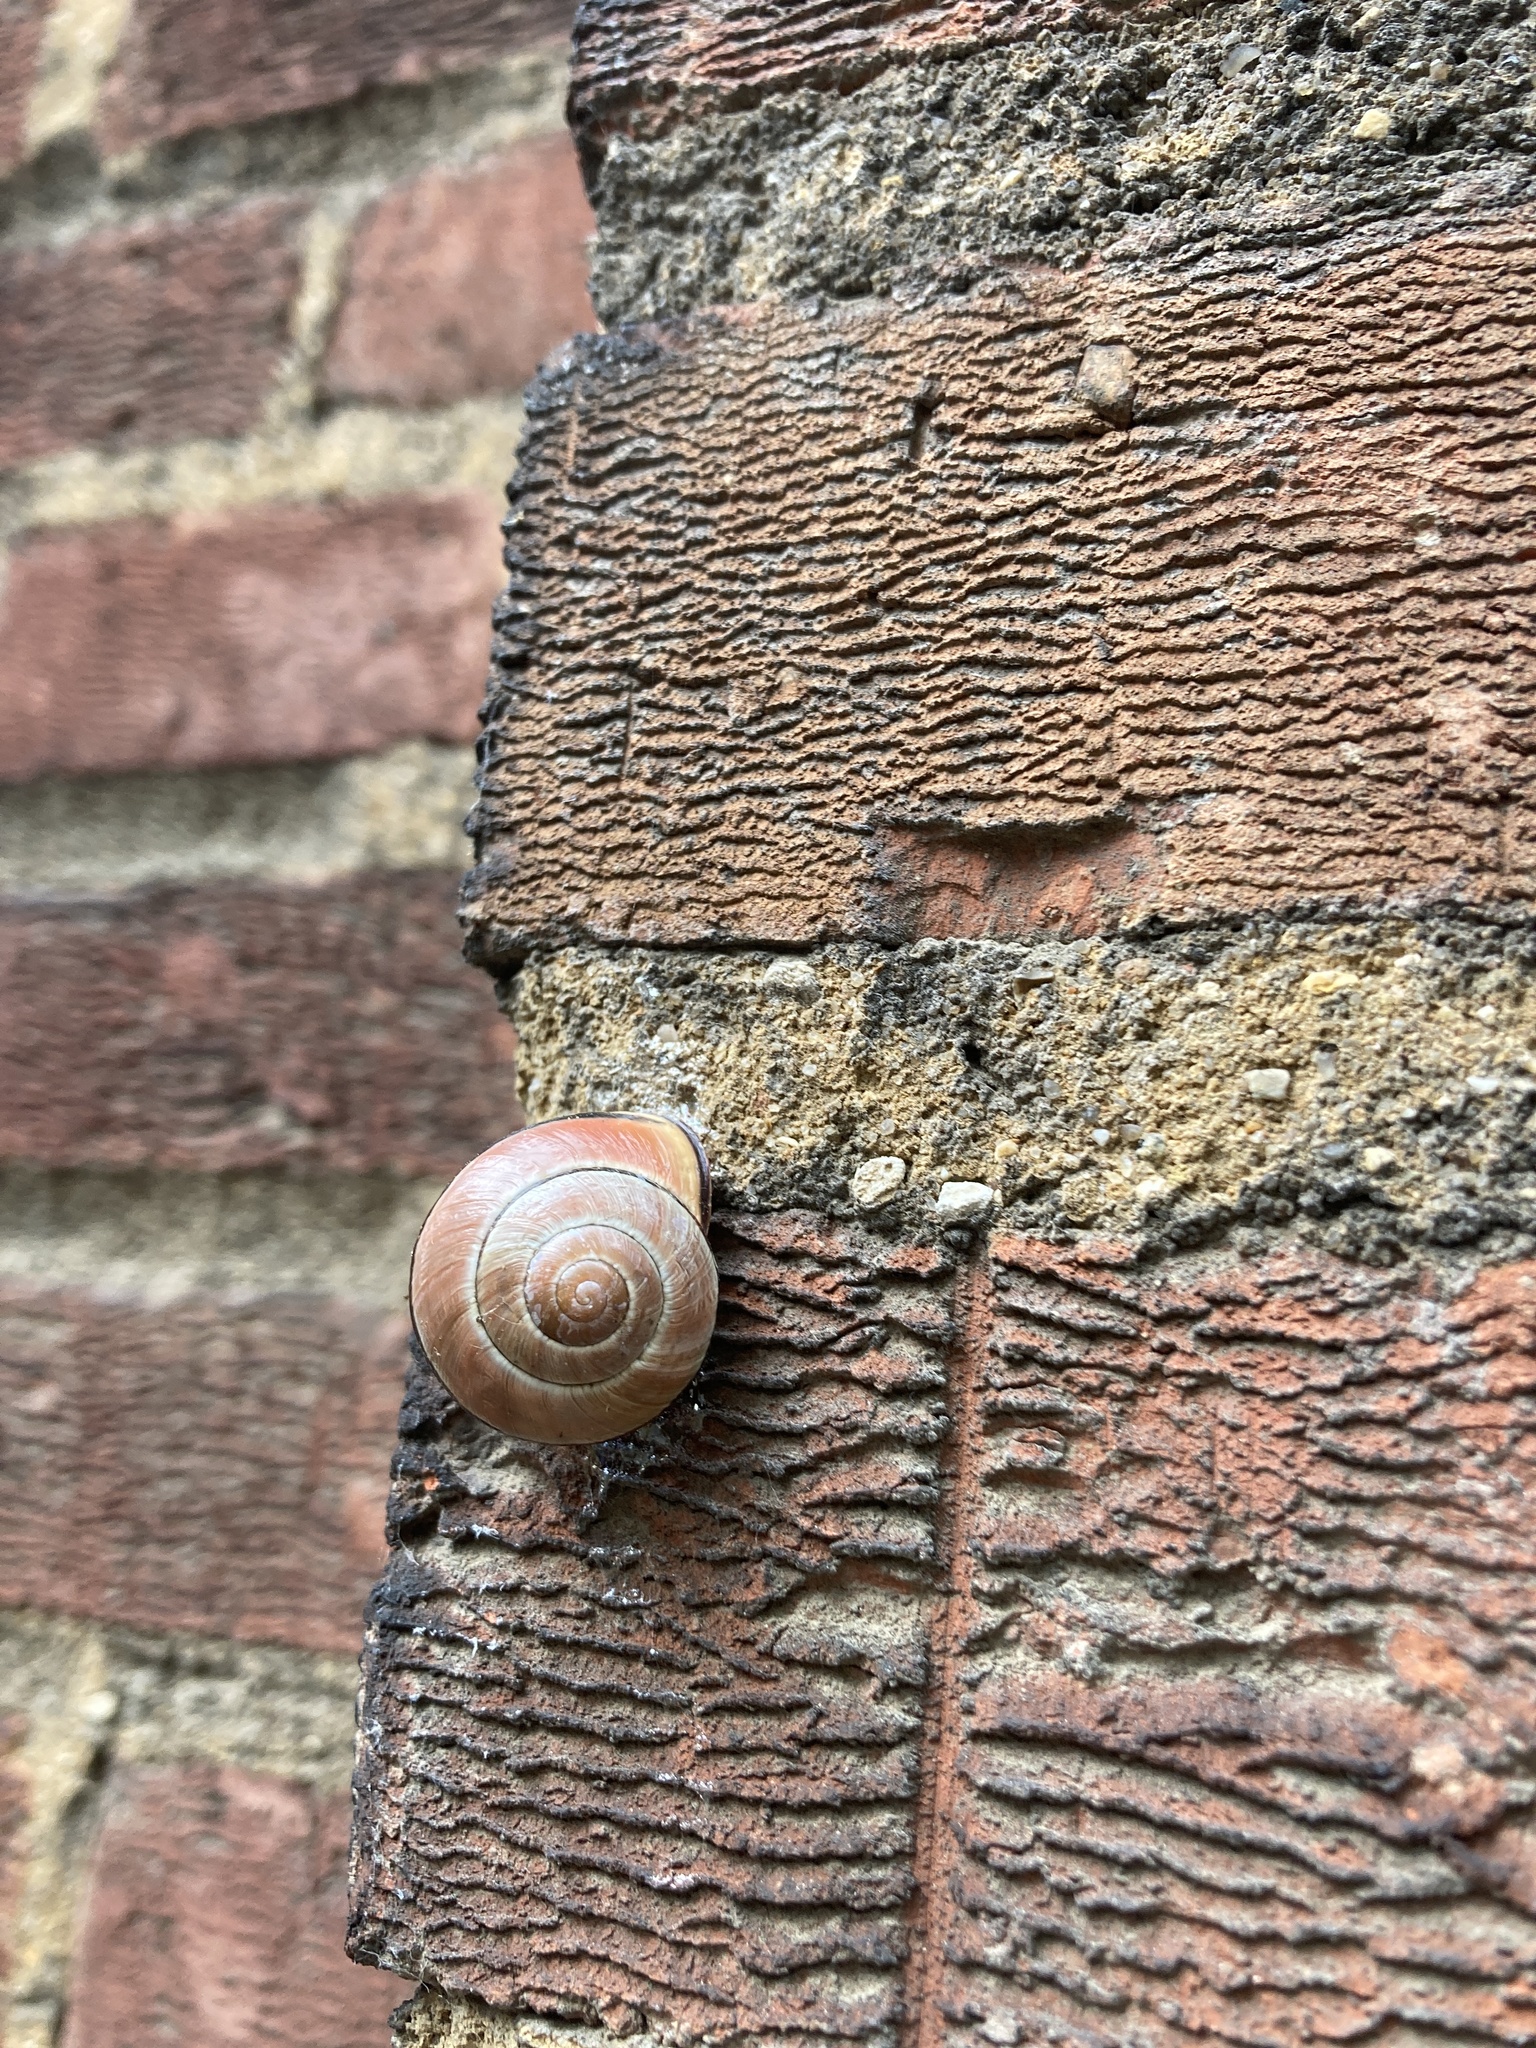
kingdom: Animalia
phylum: Mollusca
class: Gastropoda
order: Stylommatophora
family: Helicidae
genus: Cepaea
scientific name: Cepaea nemoralis
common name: Grovesnail
